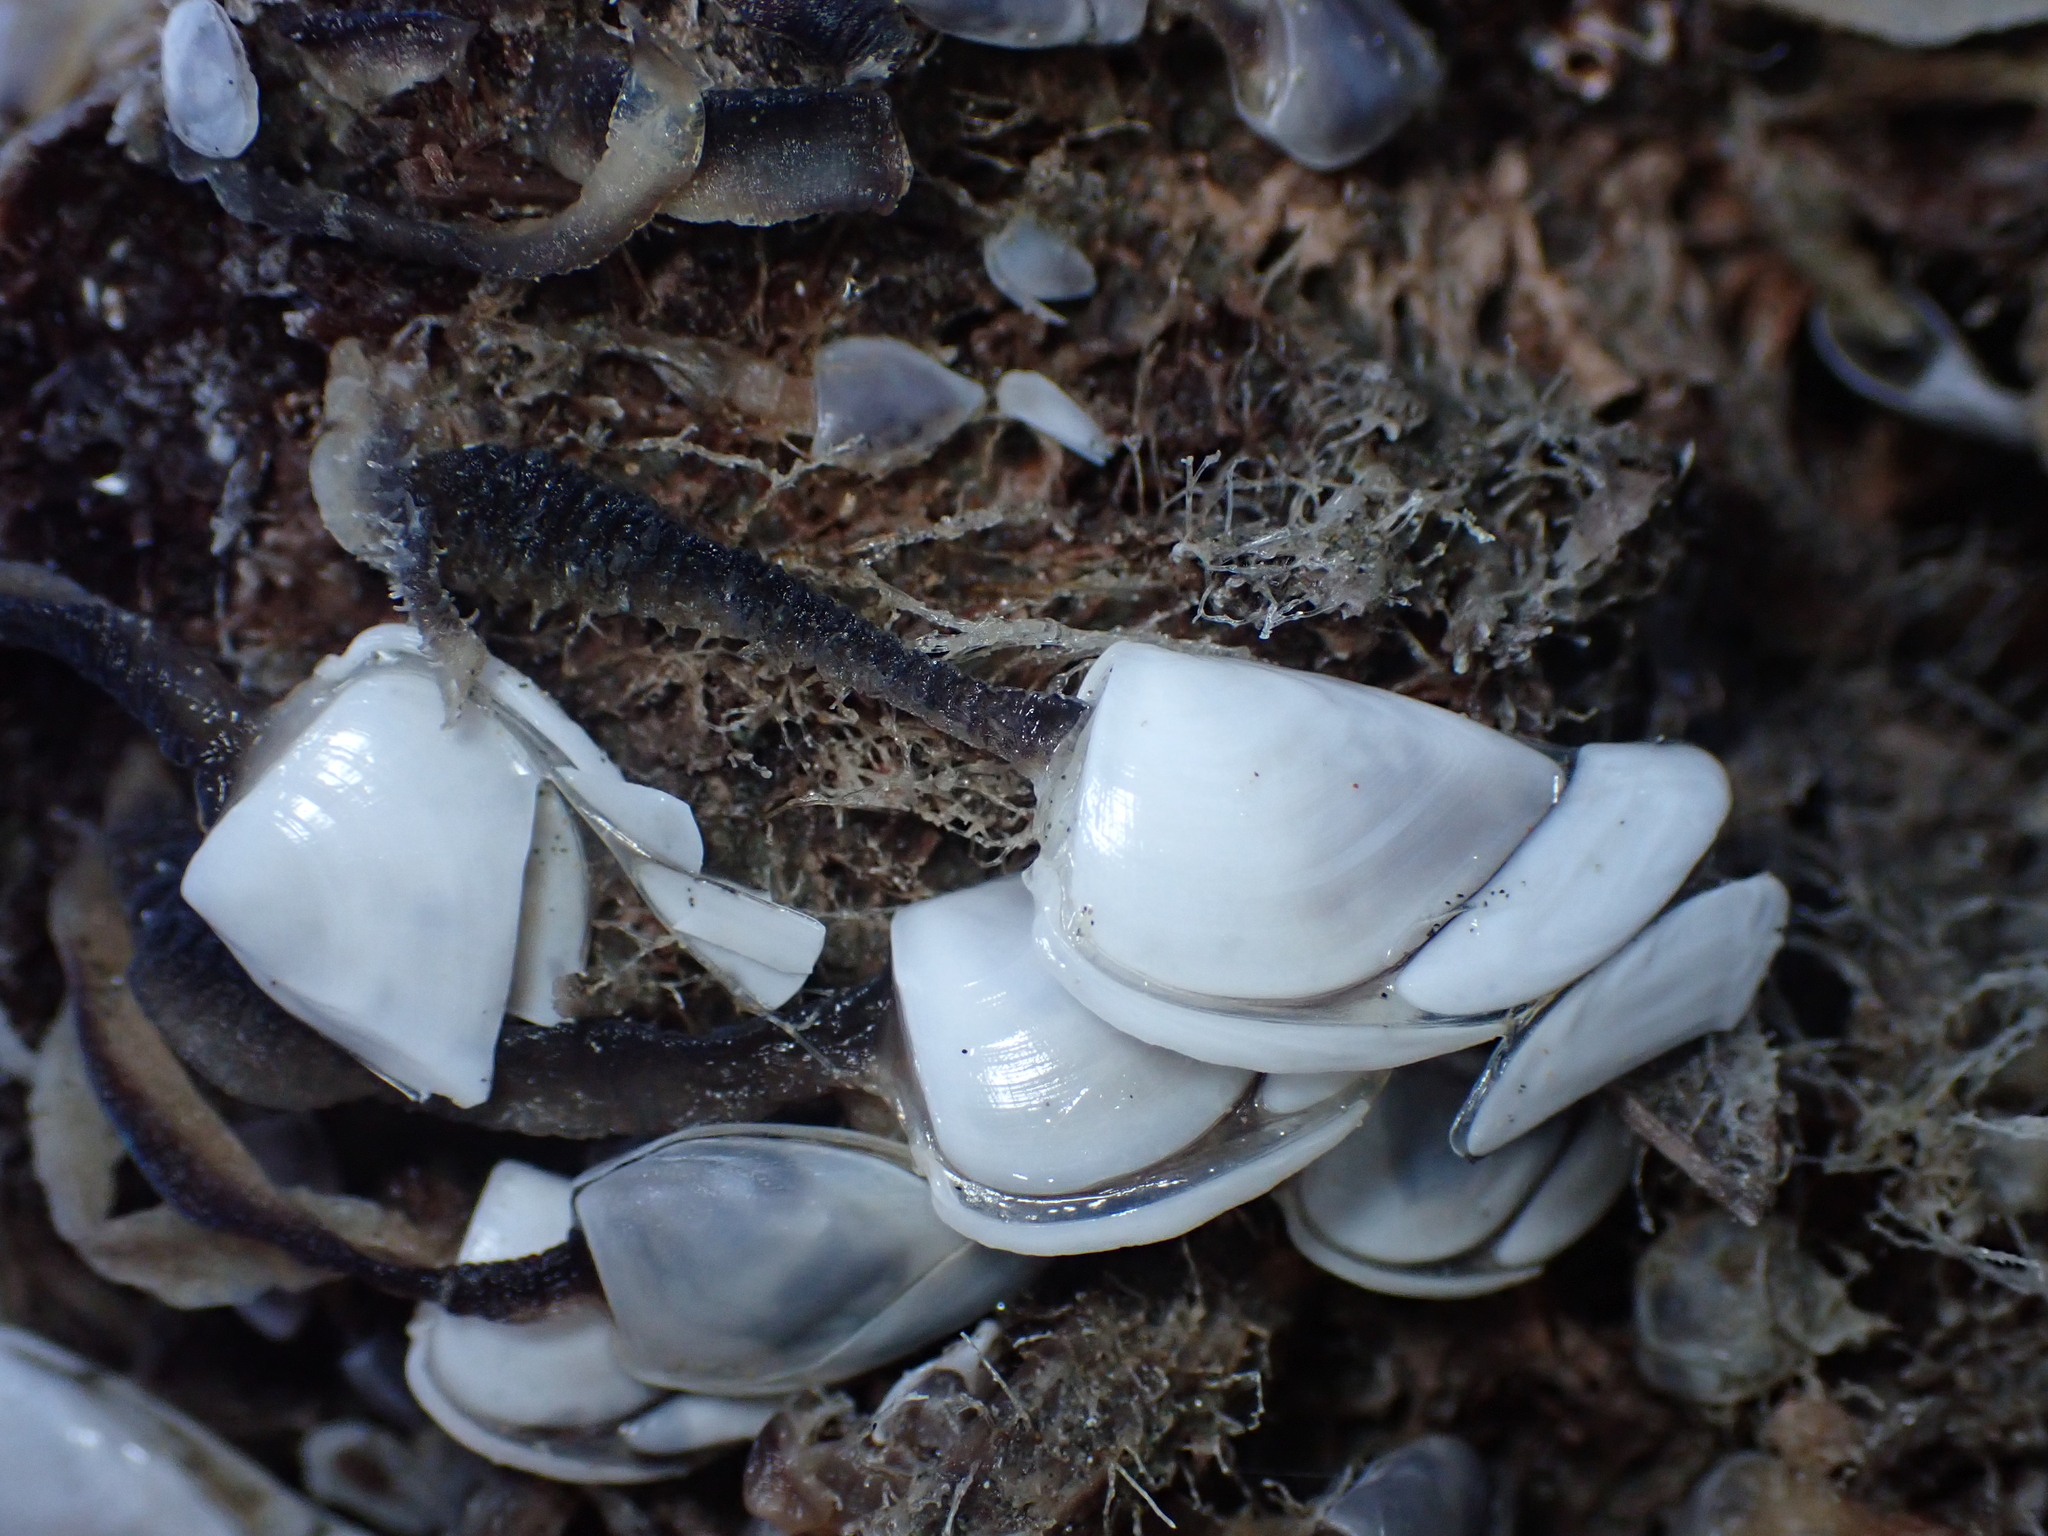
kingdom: Animalia
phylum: Arthropoda
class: Maxillopoda
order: Pedunculata
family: Lepadidae
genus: Lepas
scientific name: Lepas testudinata
